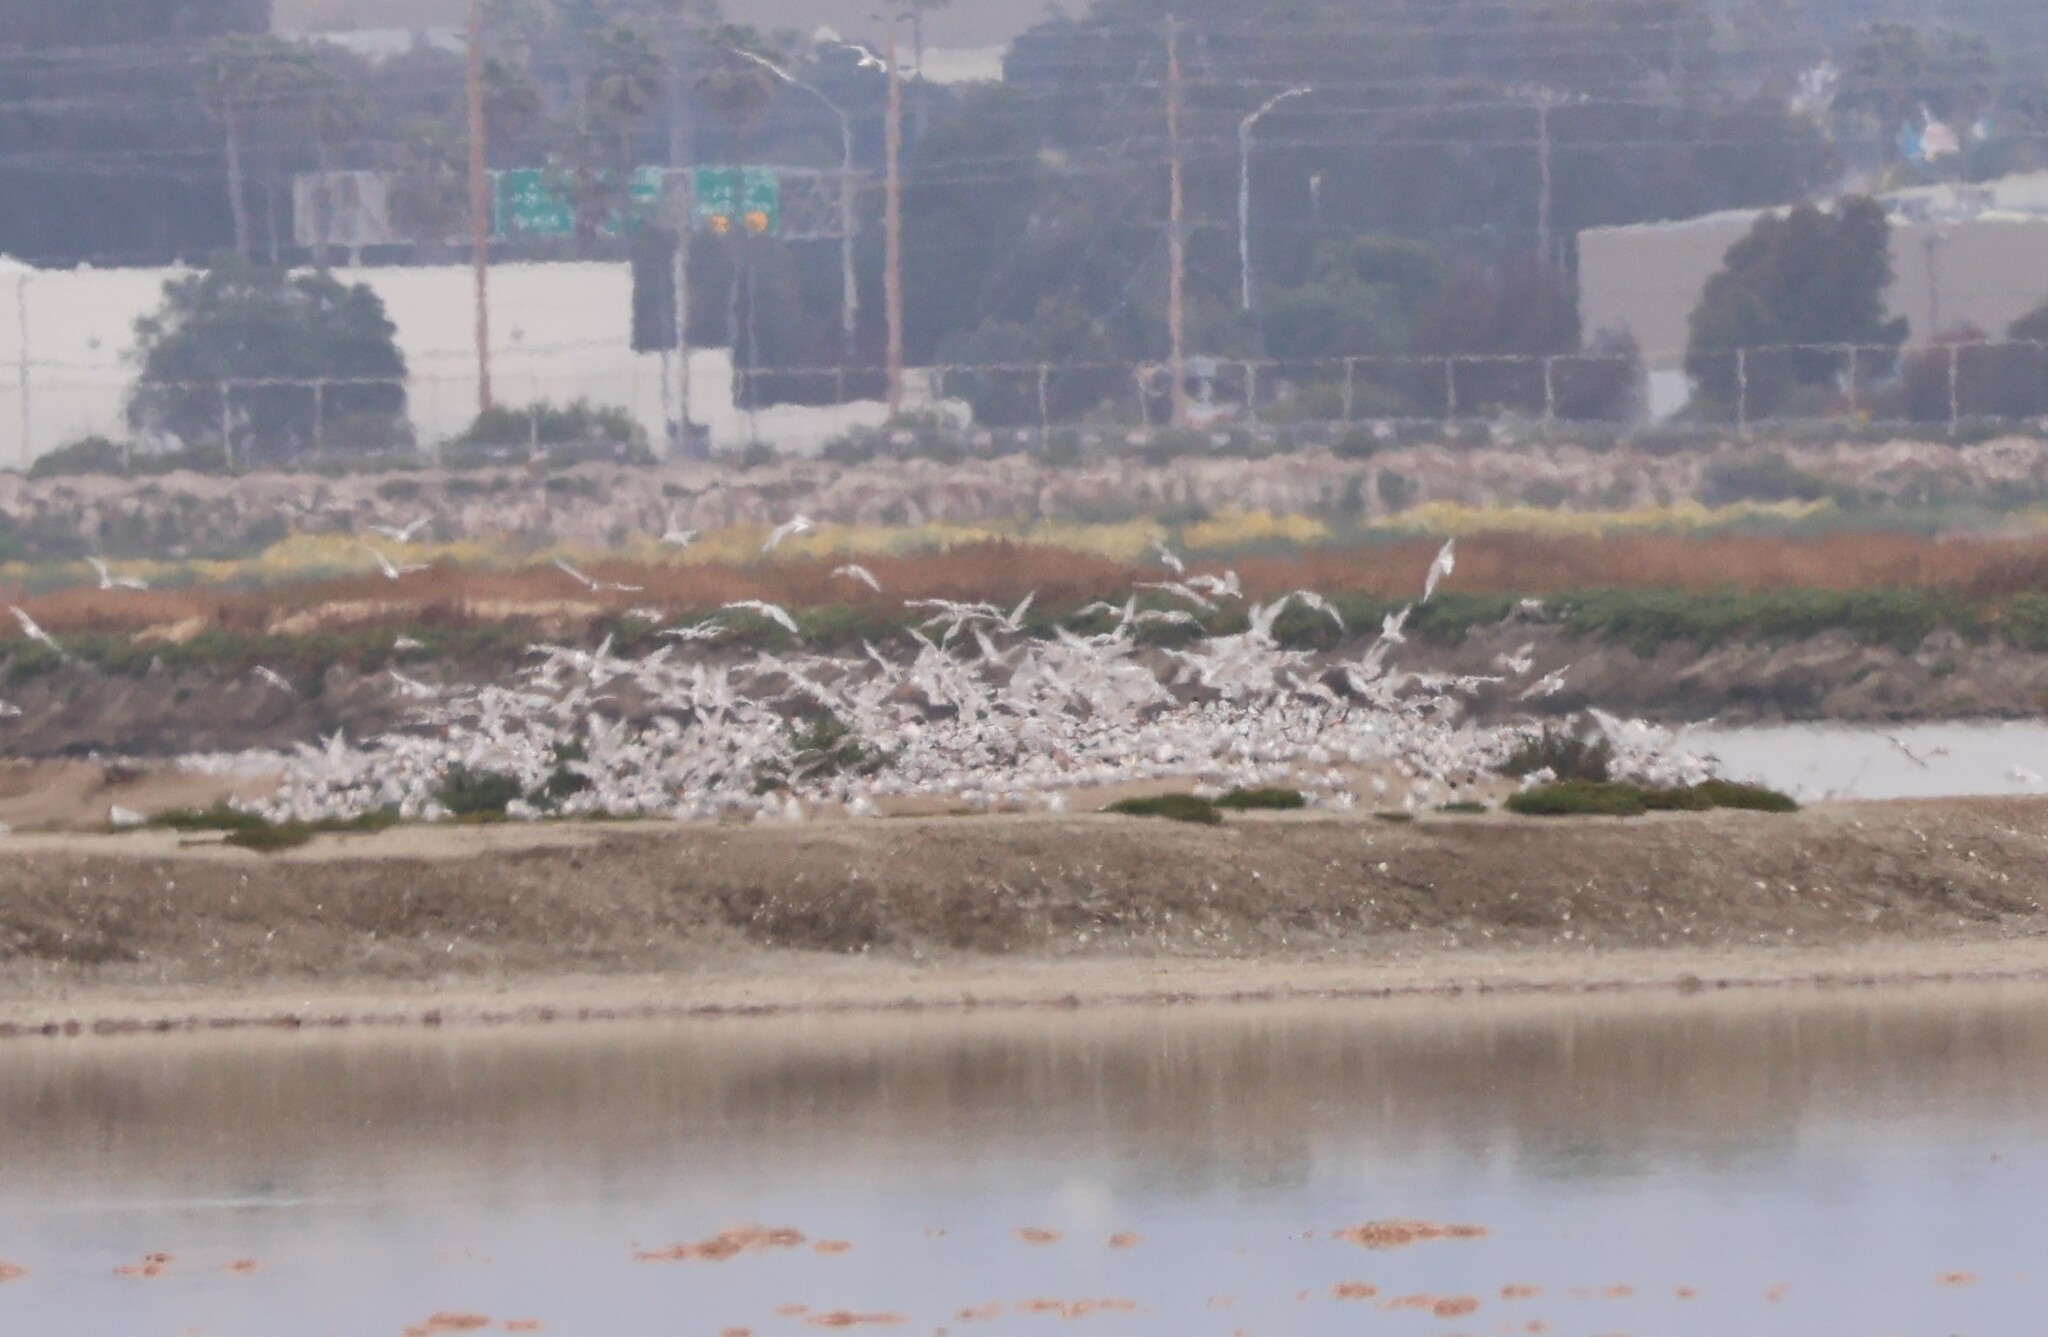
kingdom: Animalia
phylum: Chordata
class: Aves
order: Charadriiformes
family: Laridae
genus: Thalasseus
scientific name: Thalasseus elegans
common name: Elegant tern
